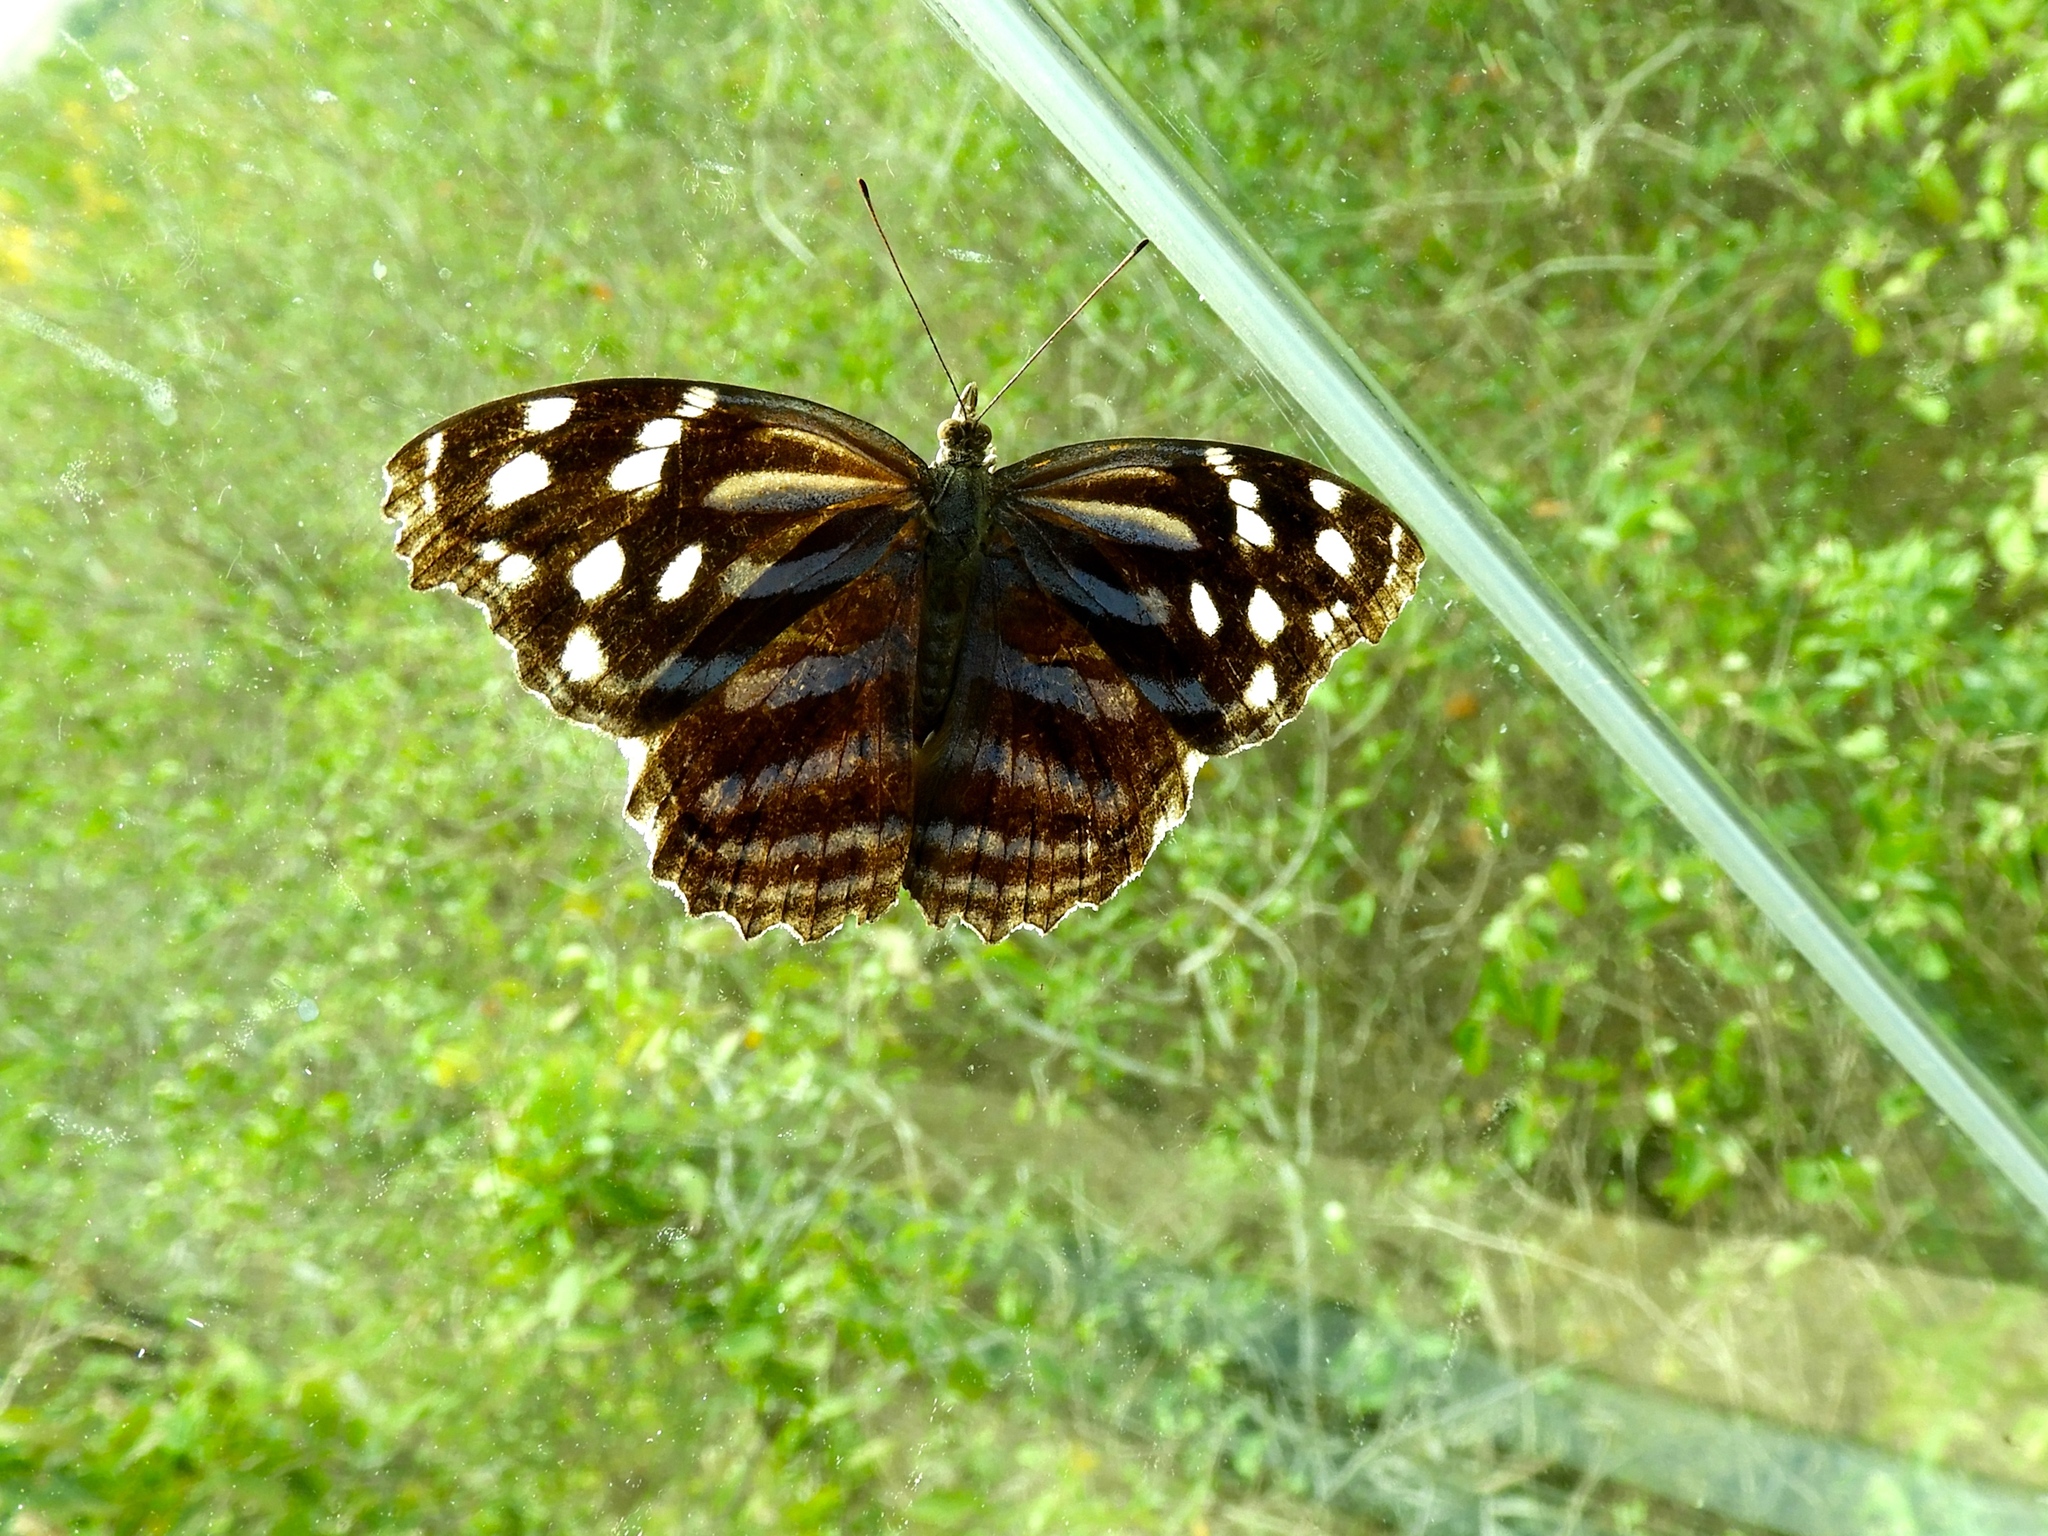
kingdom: Animalia
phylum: Arthropoda
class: Insecta
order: Lepidoptera
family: Nymphalidae
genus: Myscelia
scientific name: Myscelia cyananthe
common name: Blackened bluewing
